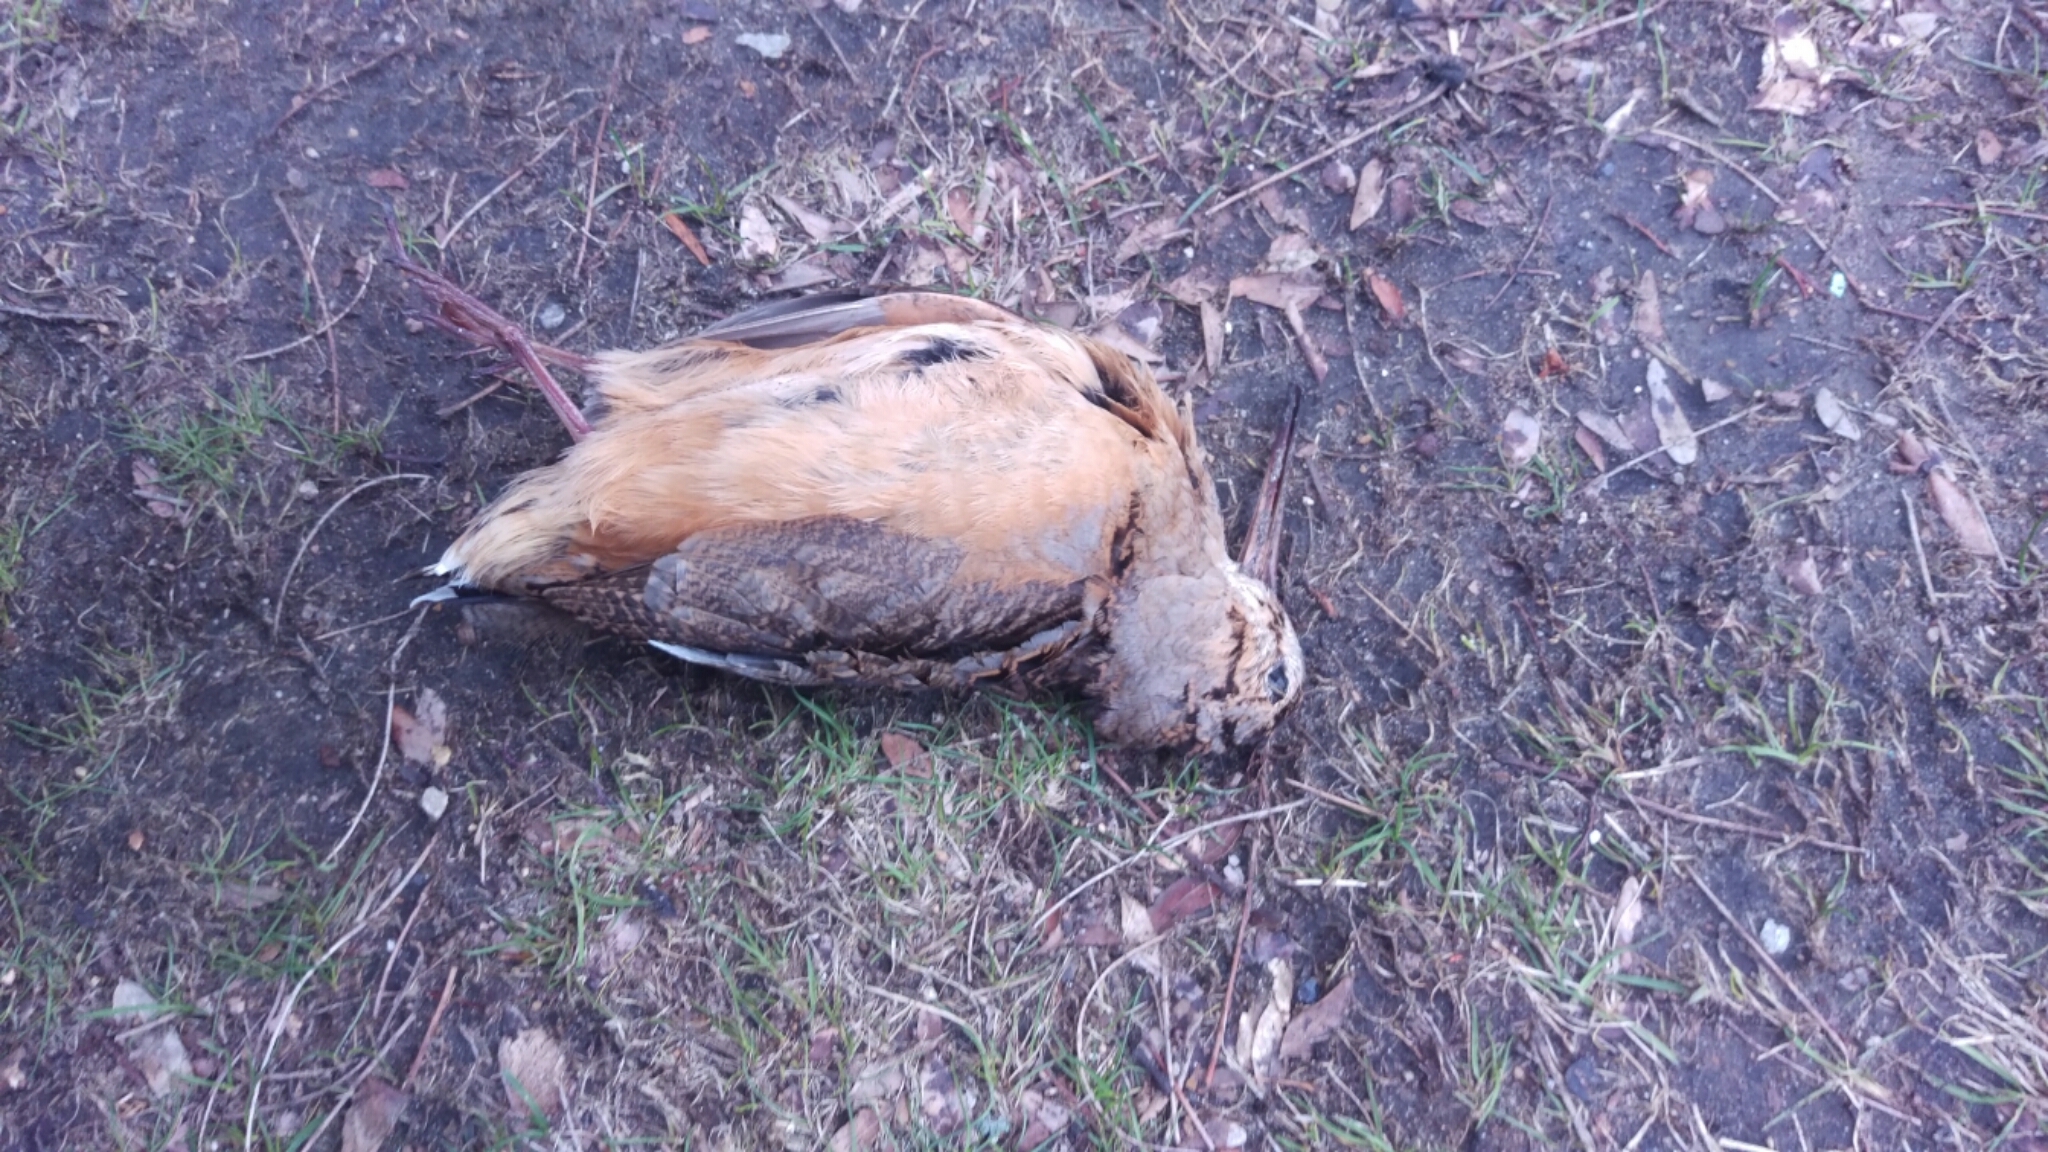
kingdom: Animalia
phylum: Chordata
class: Aves
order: Charadriiformes
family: Scolopacidae
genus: Scolopax
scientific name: Scolopax minor
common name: American woodcock
